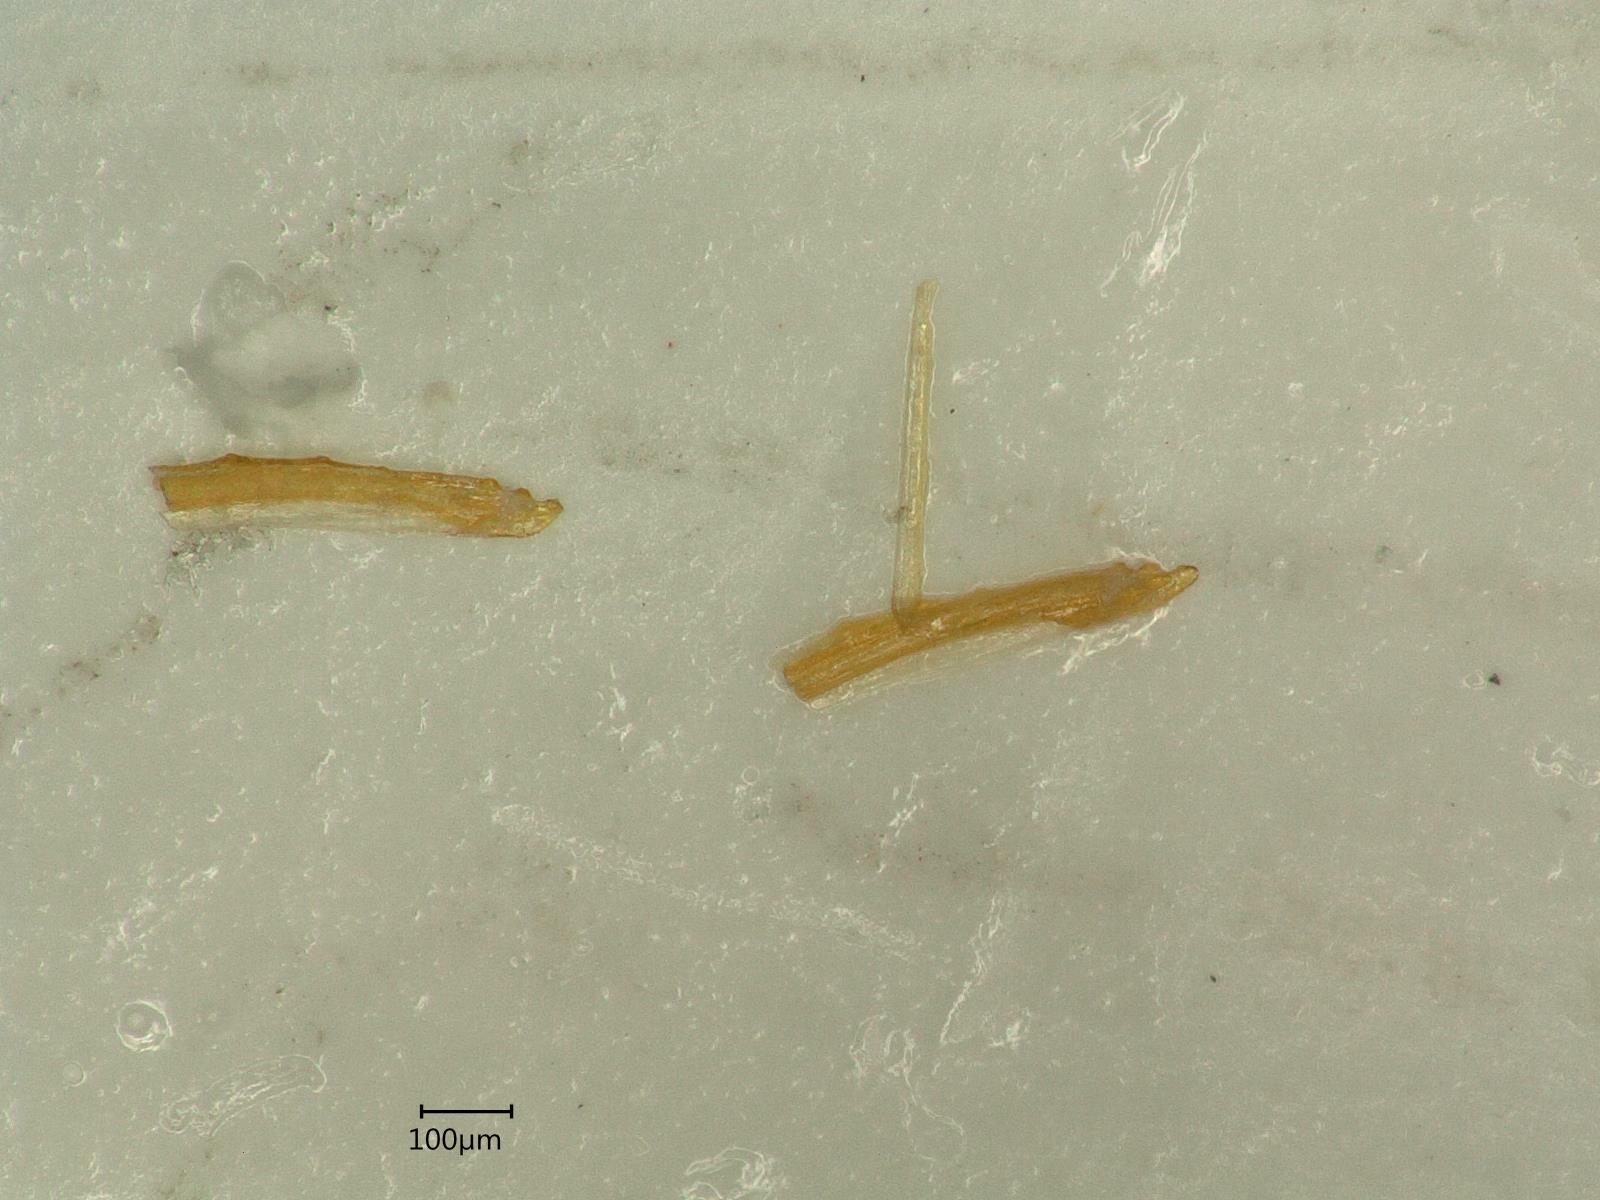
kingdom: Animalia
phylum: Arthropoda
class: Insecta
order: Hemiptera
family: Cicadellidae
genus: Macropsis
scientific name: Macropsis ocellata
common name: Leafhopper
